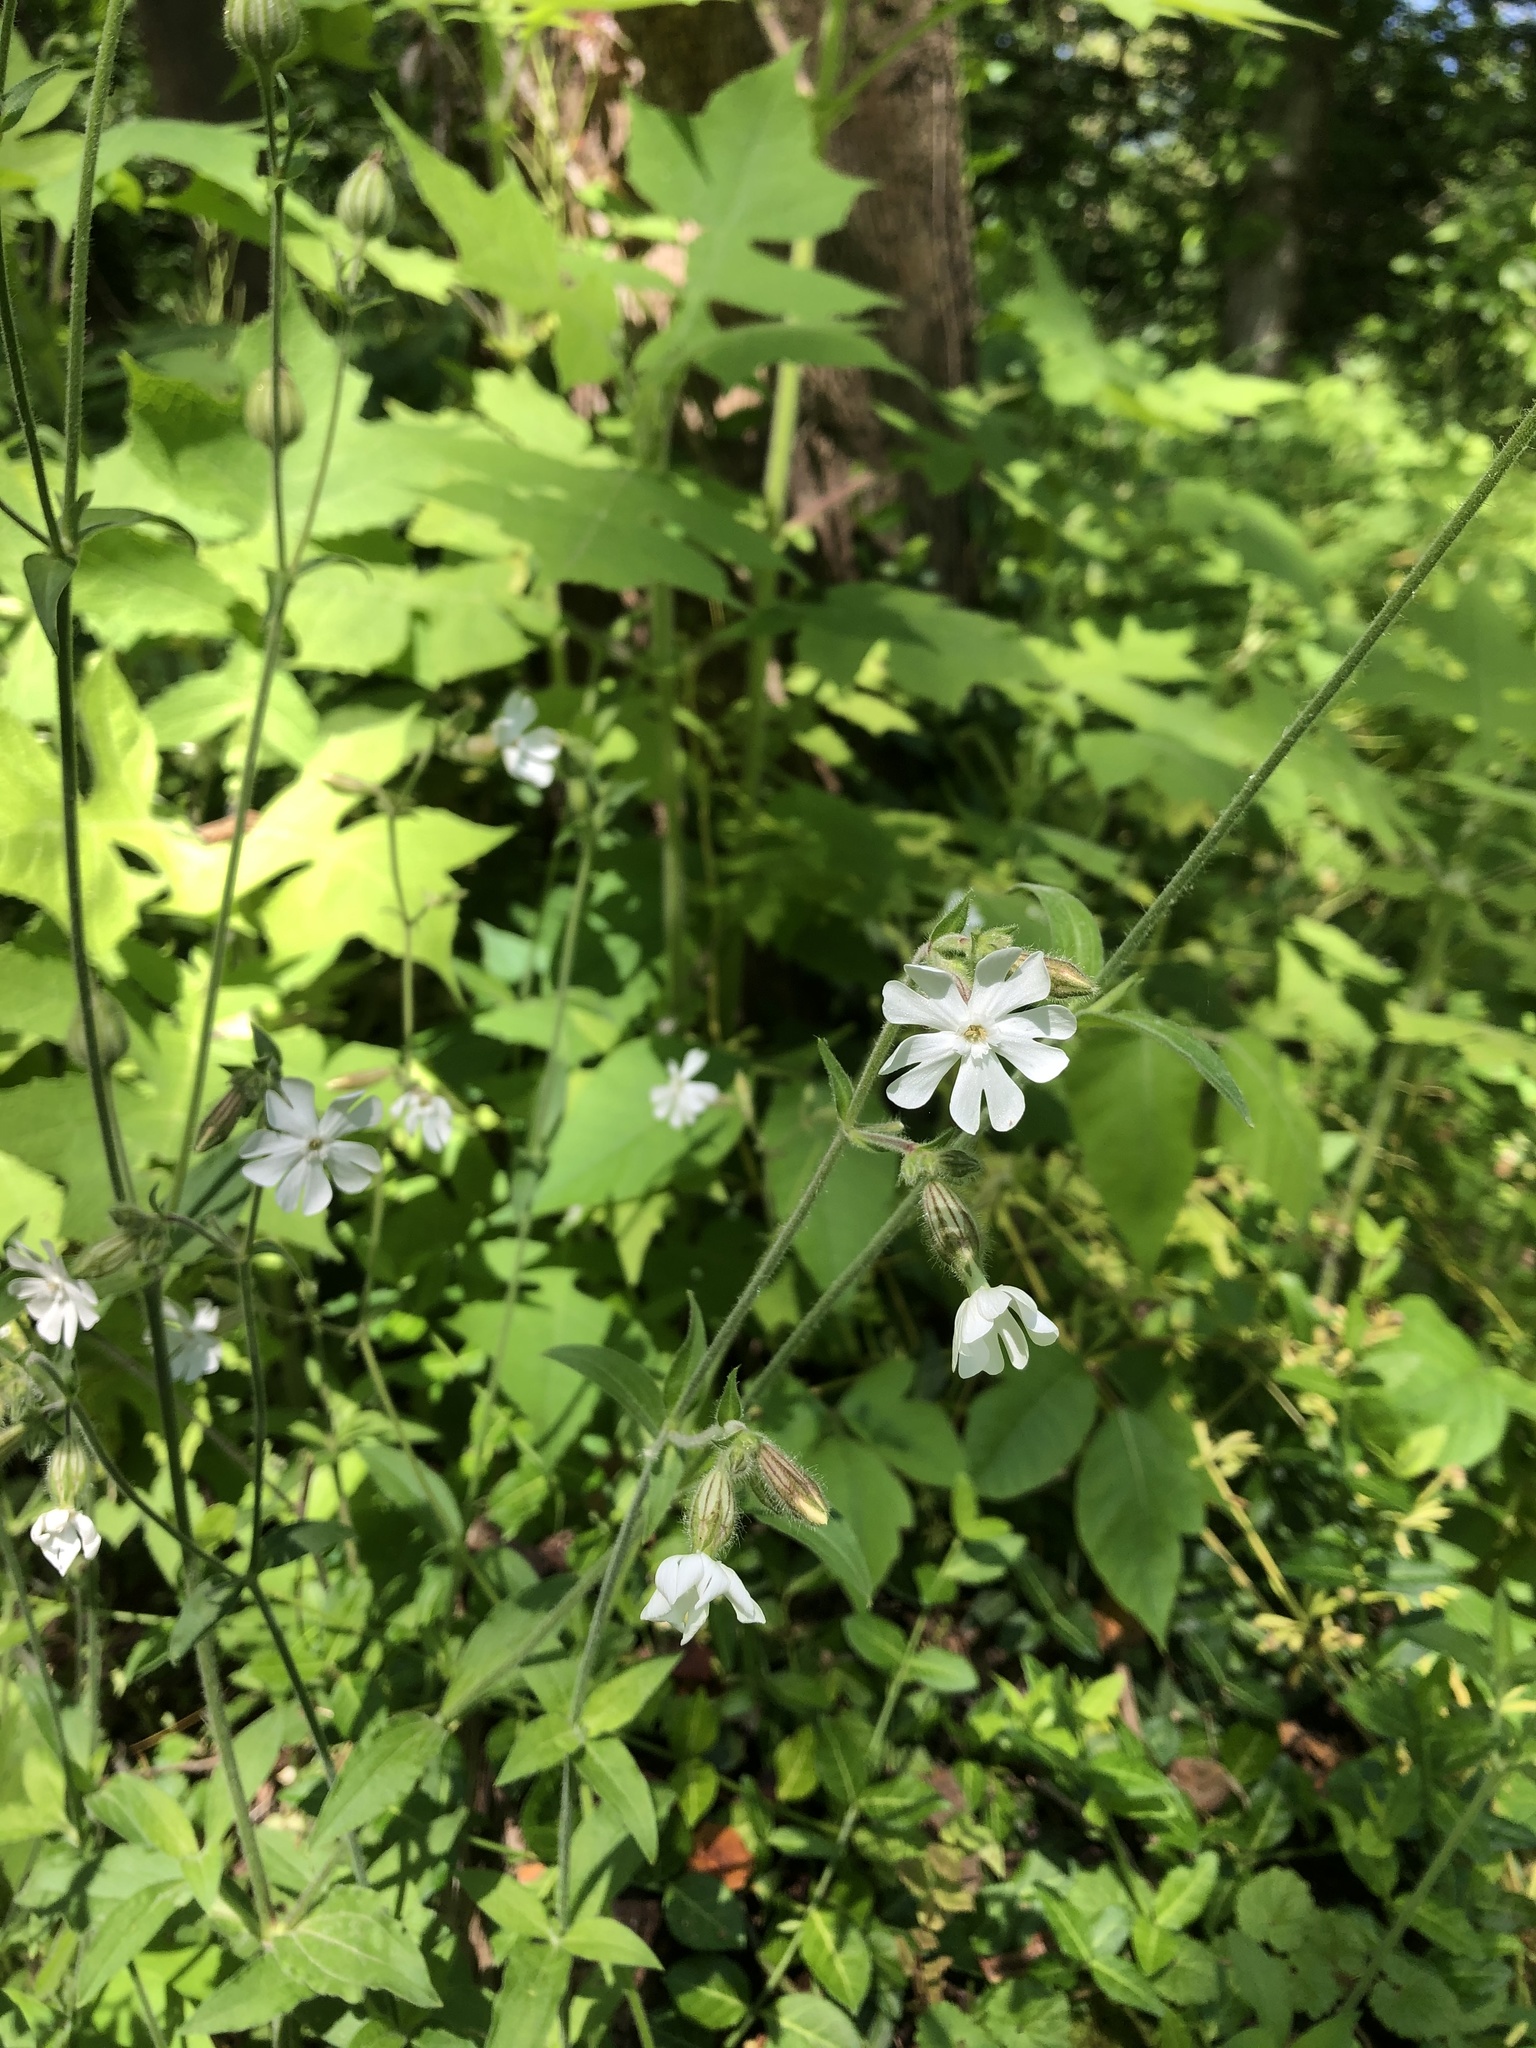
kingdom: Plantae
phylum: Tracheophyta
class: Magnoliopsida
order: Caryophyllales
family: Caryophyllaceae
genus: Silene
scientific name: Silene latifolia
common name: White campion
